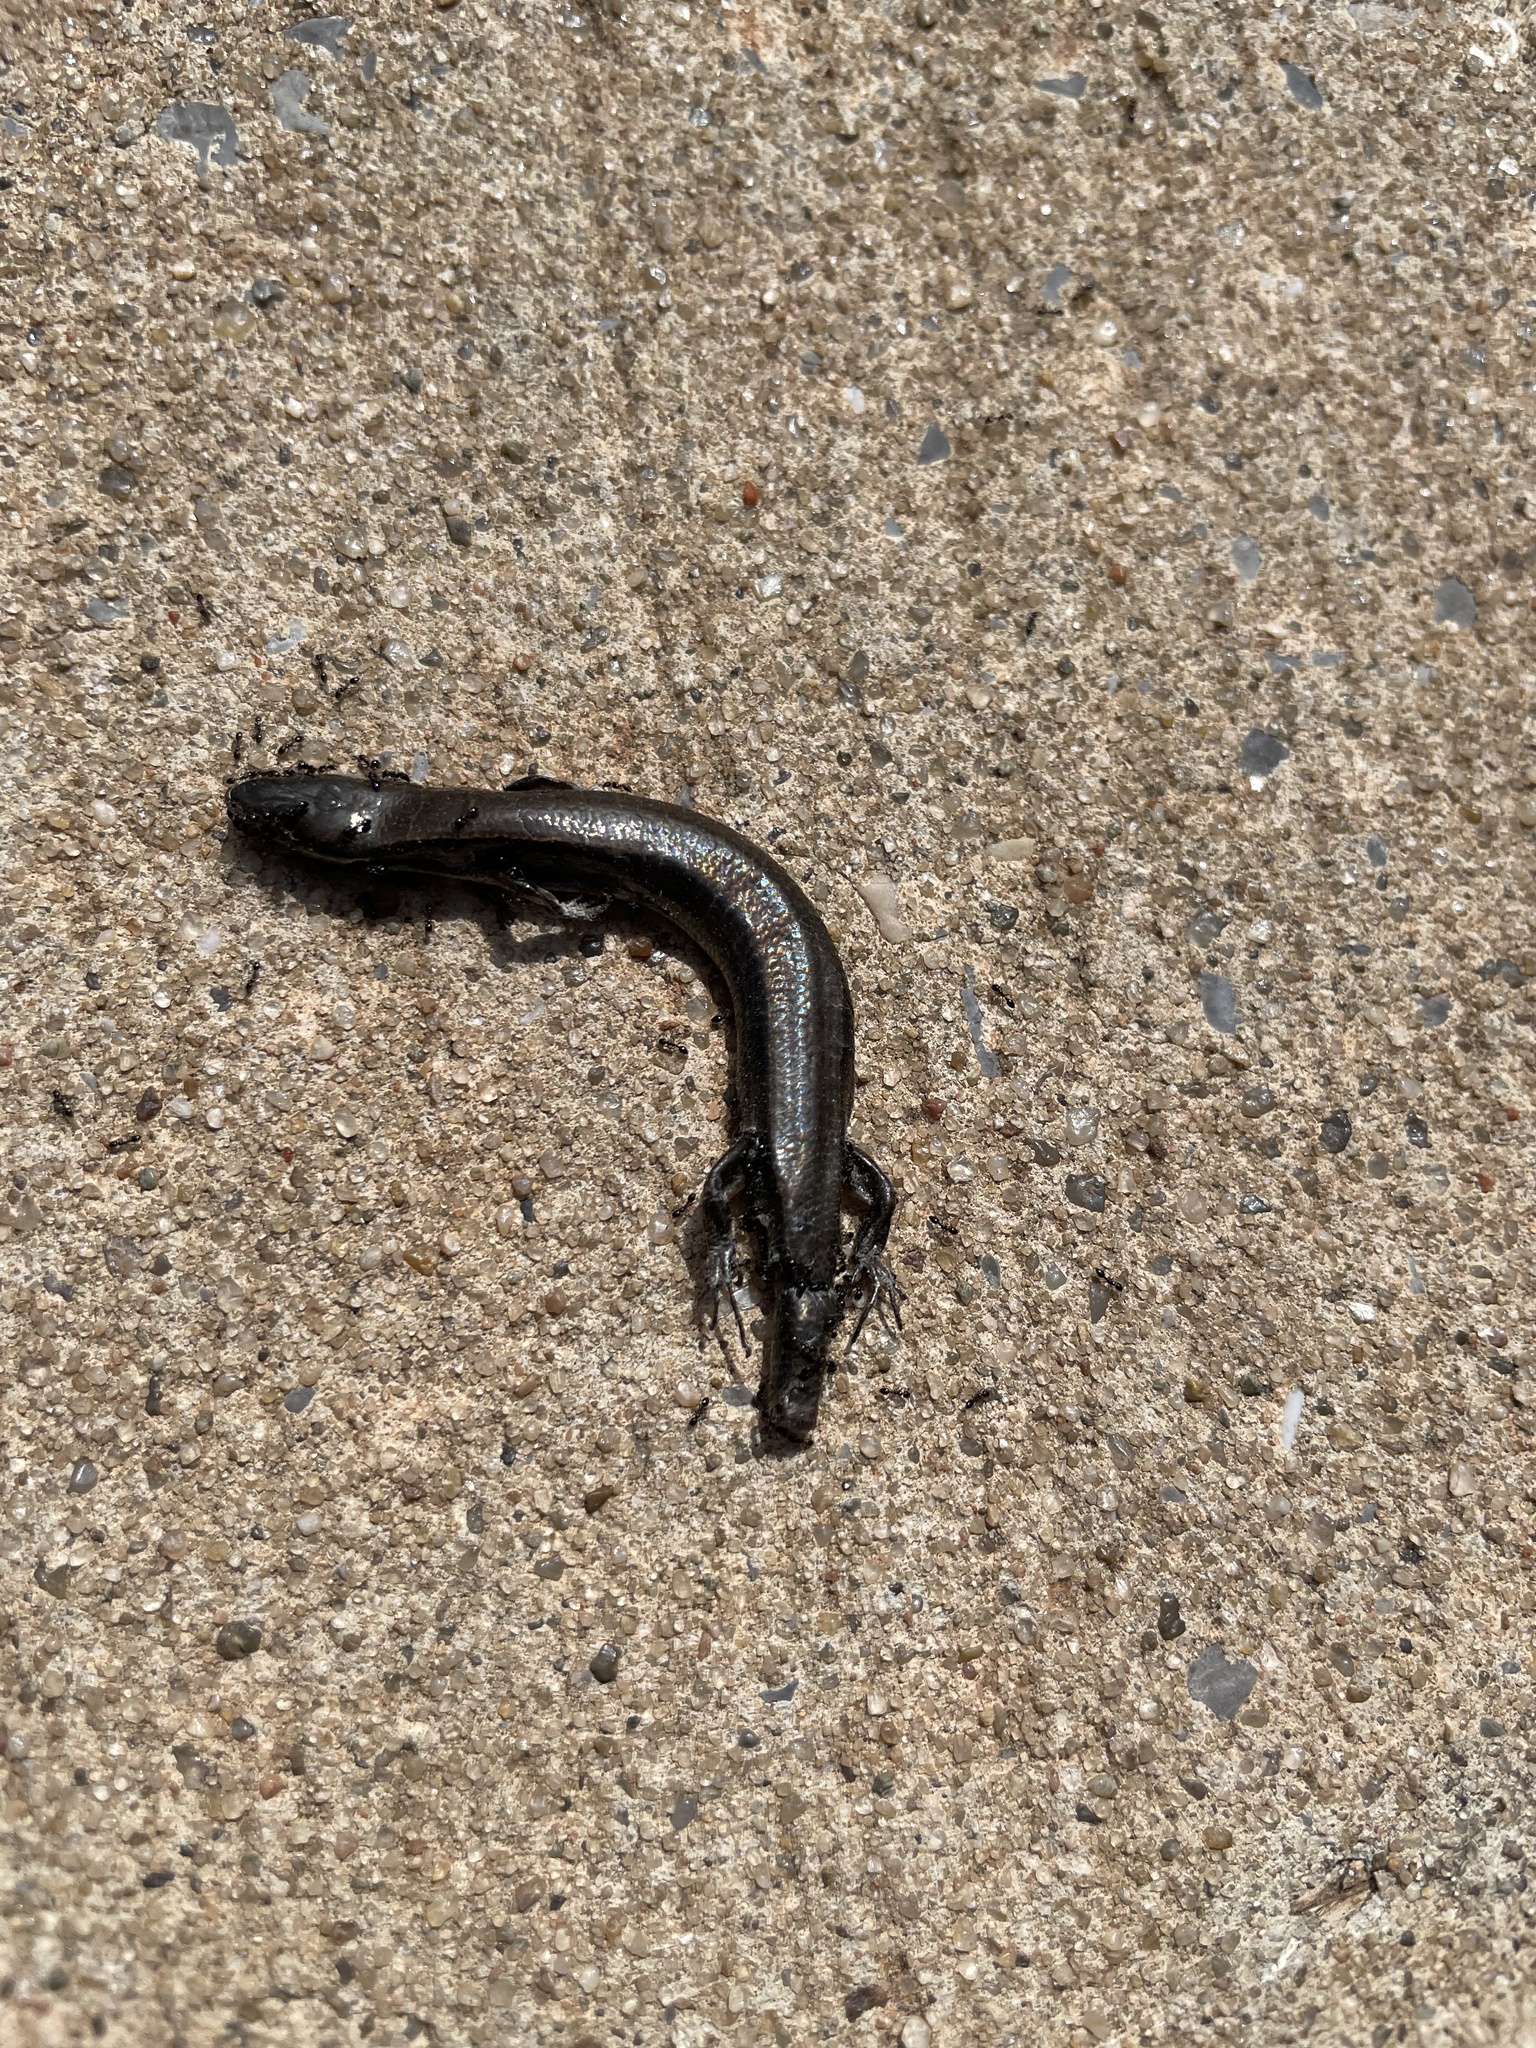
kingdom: Animalia
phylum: Chordata
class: Squamata
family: Scincidae
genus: Scincella
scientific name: Scincella lateralis
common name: Ground skink
